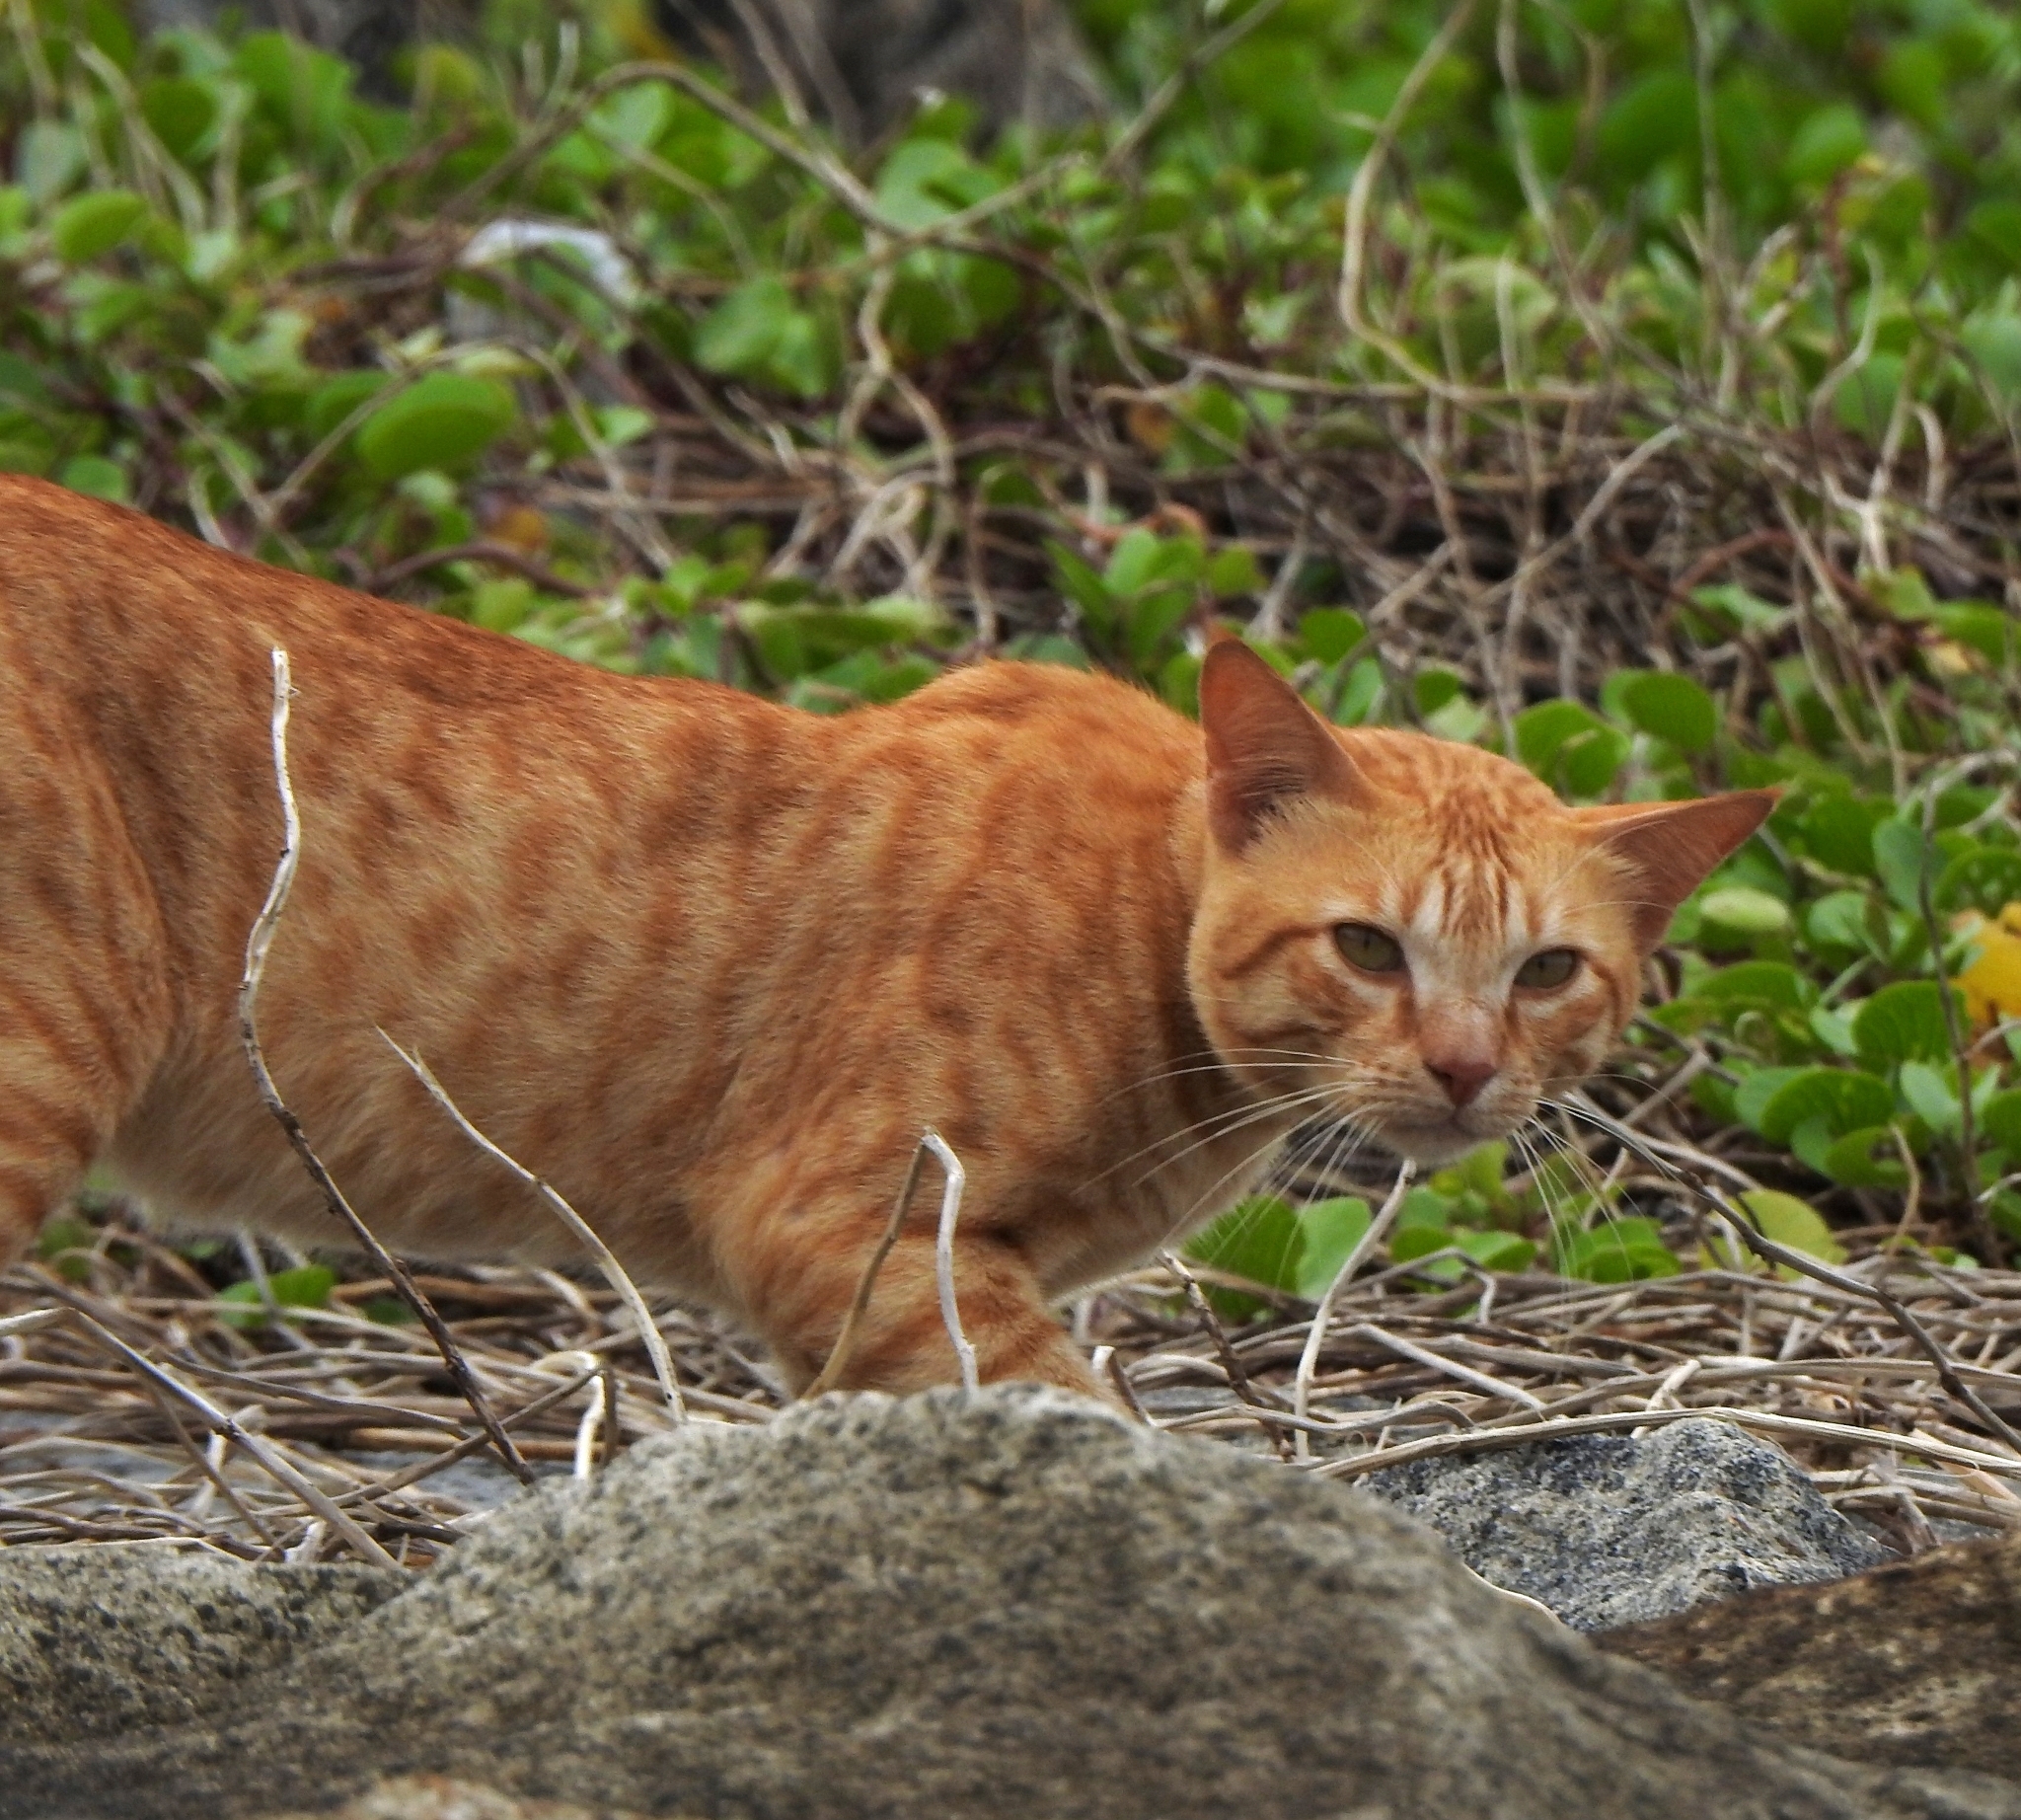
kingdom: Animalia
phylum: Chordata
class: Mammalia
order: Carnivora
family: Felidae
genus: Felis
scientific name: Felis catus
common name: Domestic cat
